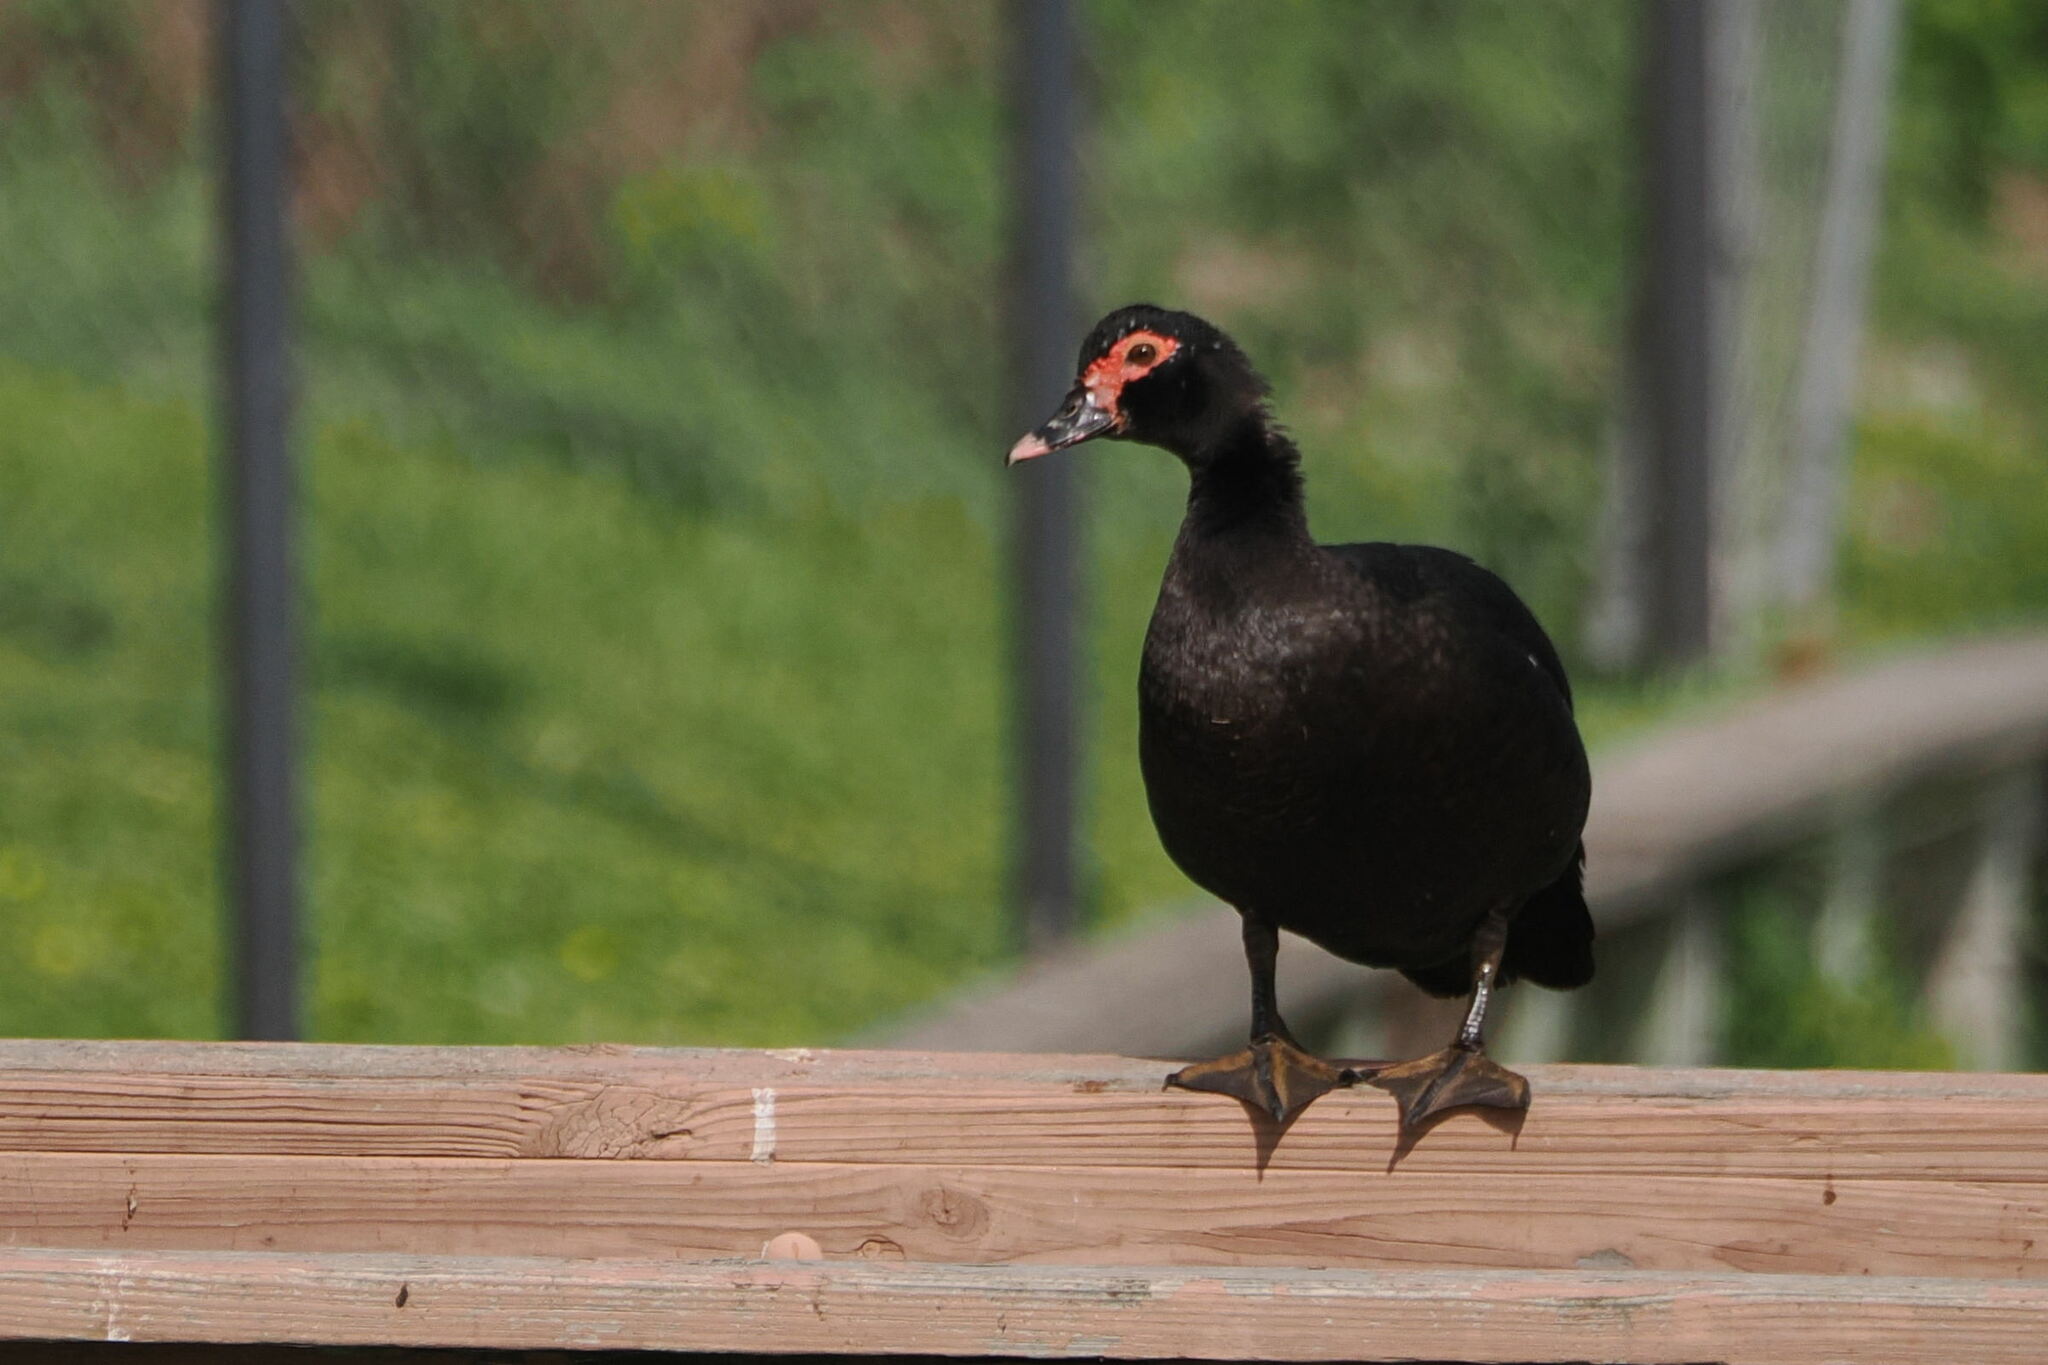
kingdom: Animalia
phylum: Chordata
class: Aves
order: Anseriformes
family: Anatidae
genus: Cairina
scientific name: Cairina moschata
